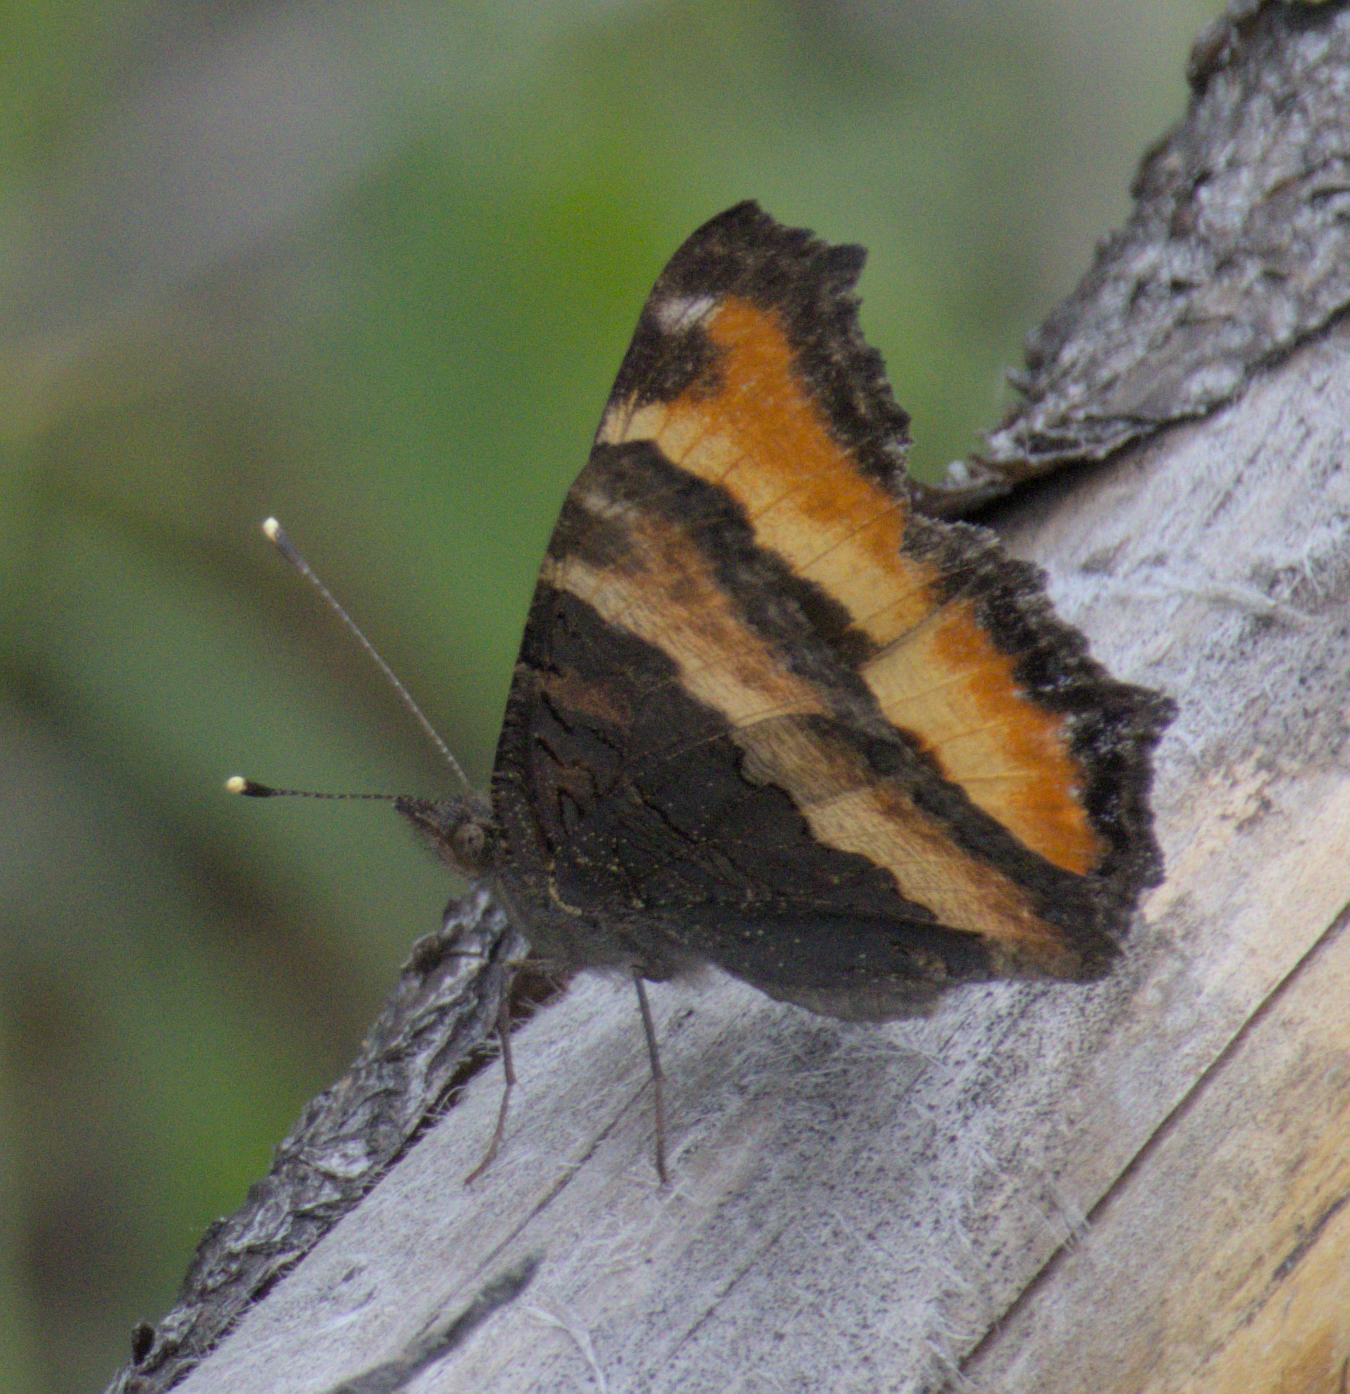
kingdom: Animalia
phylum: Arthropoda
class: Insecta
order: Lepidoptera
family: Nymphalidae
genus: Aglais
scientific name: Aglais milberti
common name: Milbert's tortoiseshell
